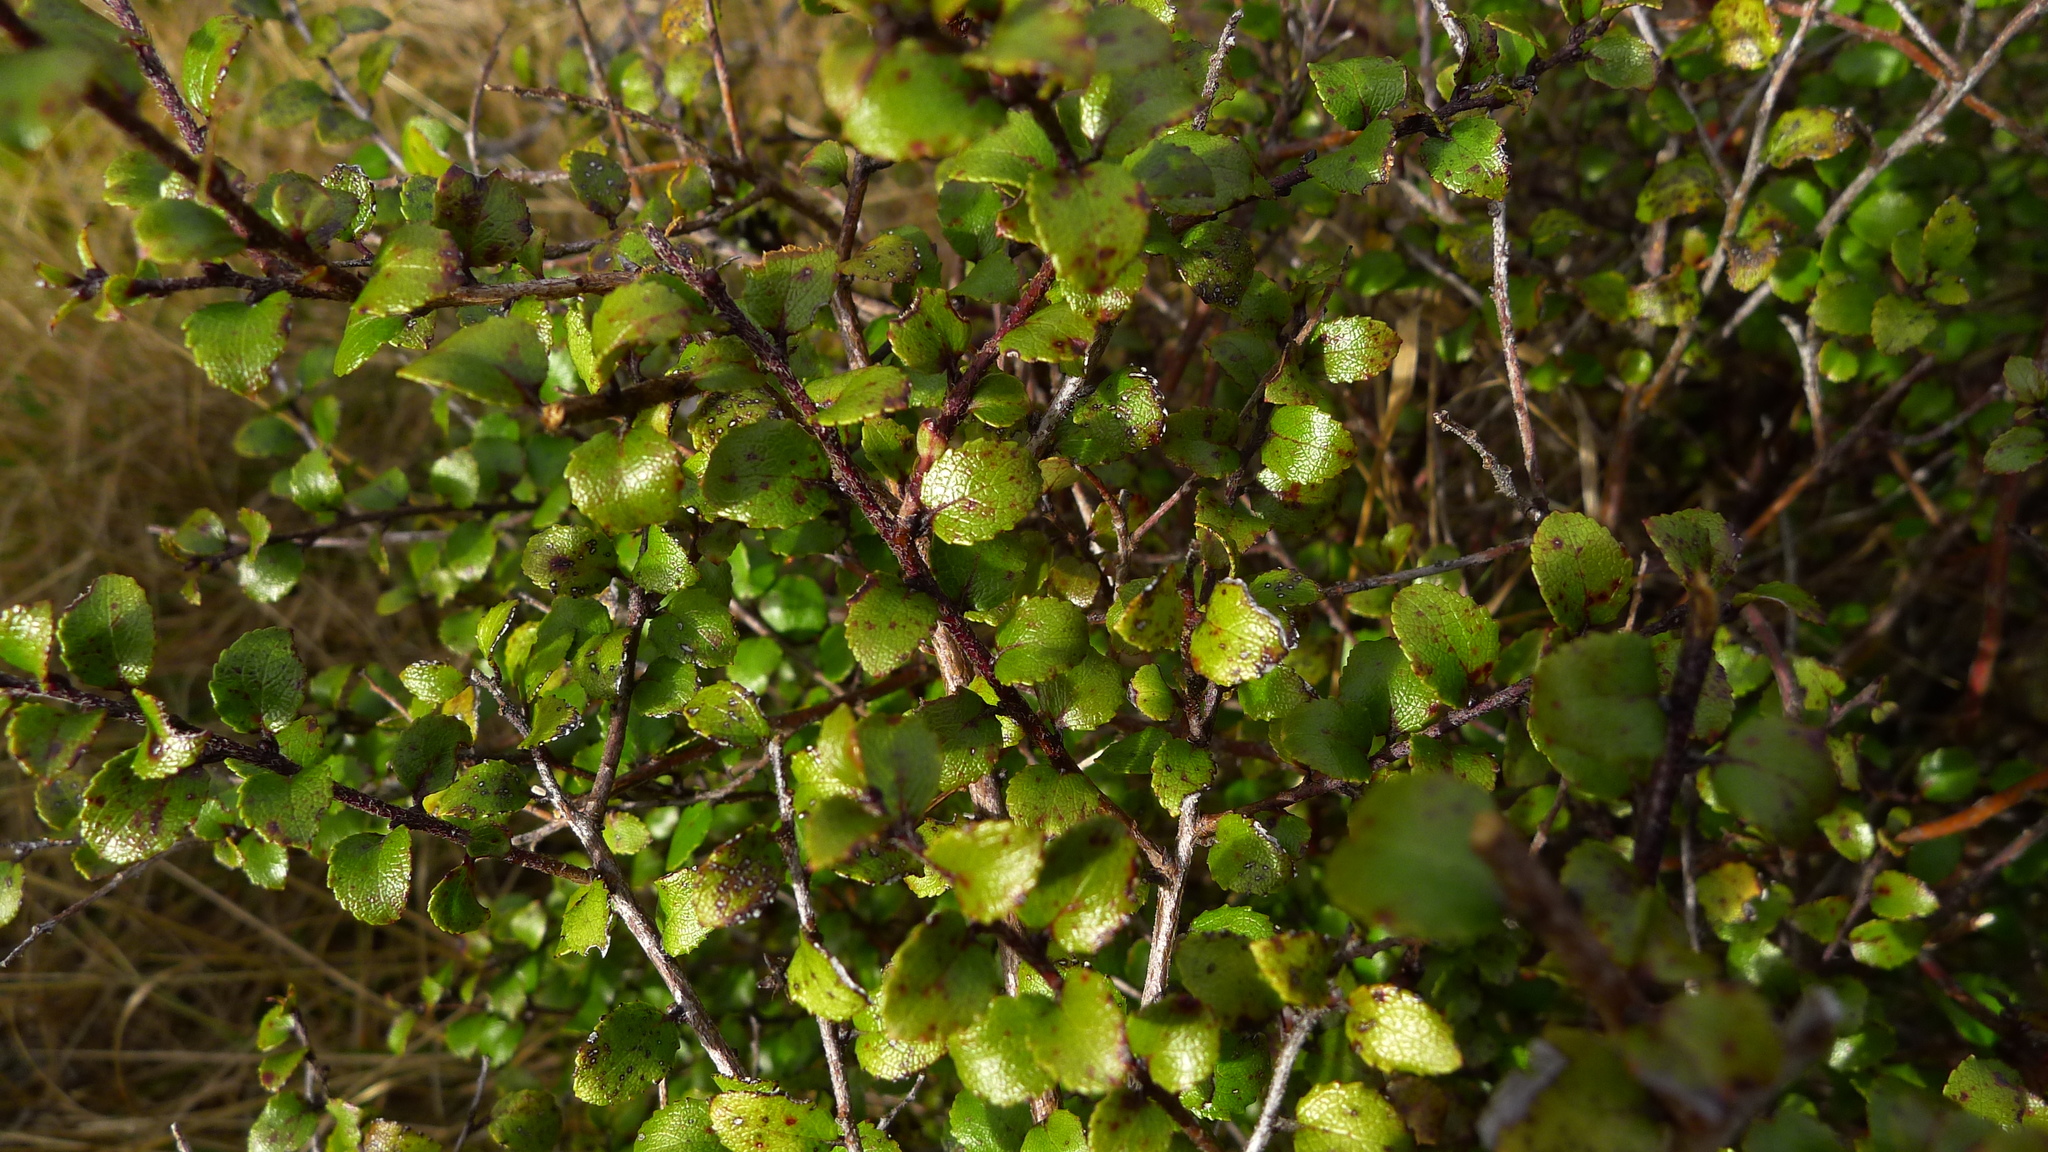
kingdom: Plantae
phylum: Tracheophyta
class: Magnoliopsida
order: Ericales
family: Ericaceae
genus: Gaultheria
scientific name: Gaultheria antipoda
